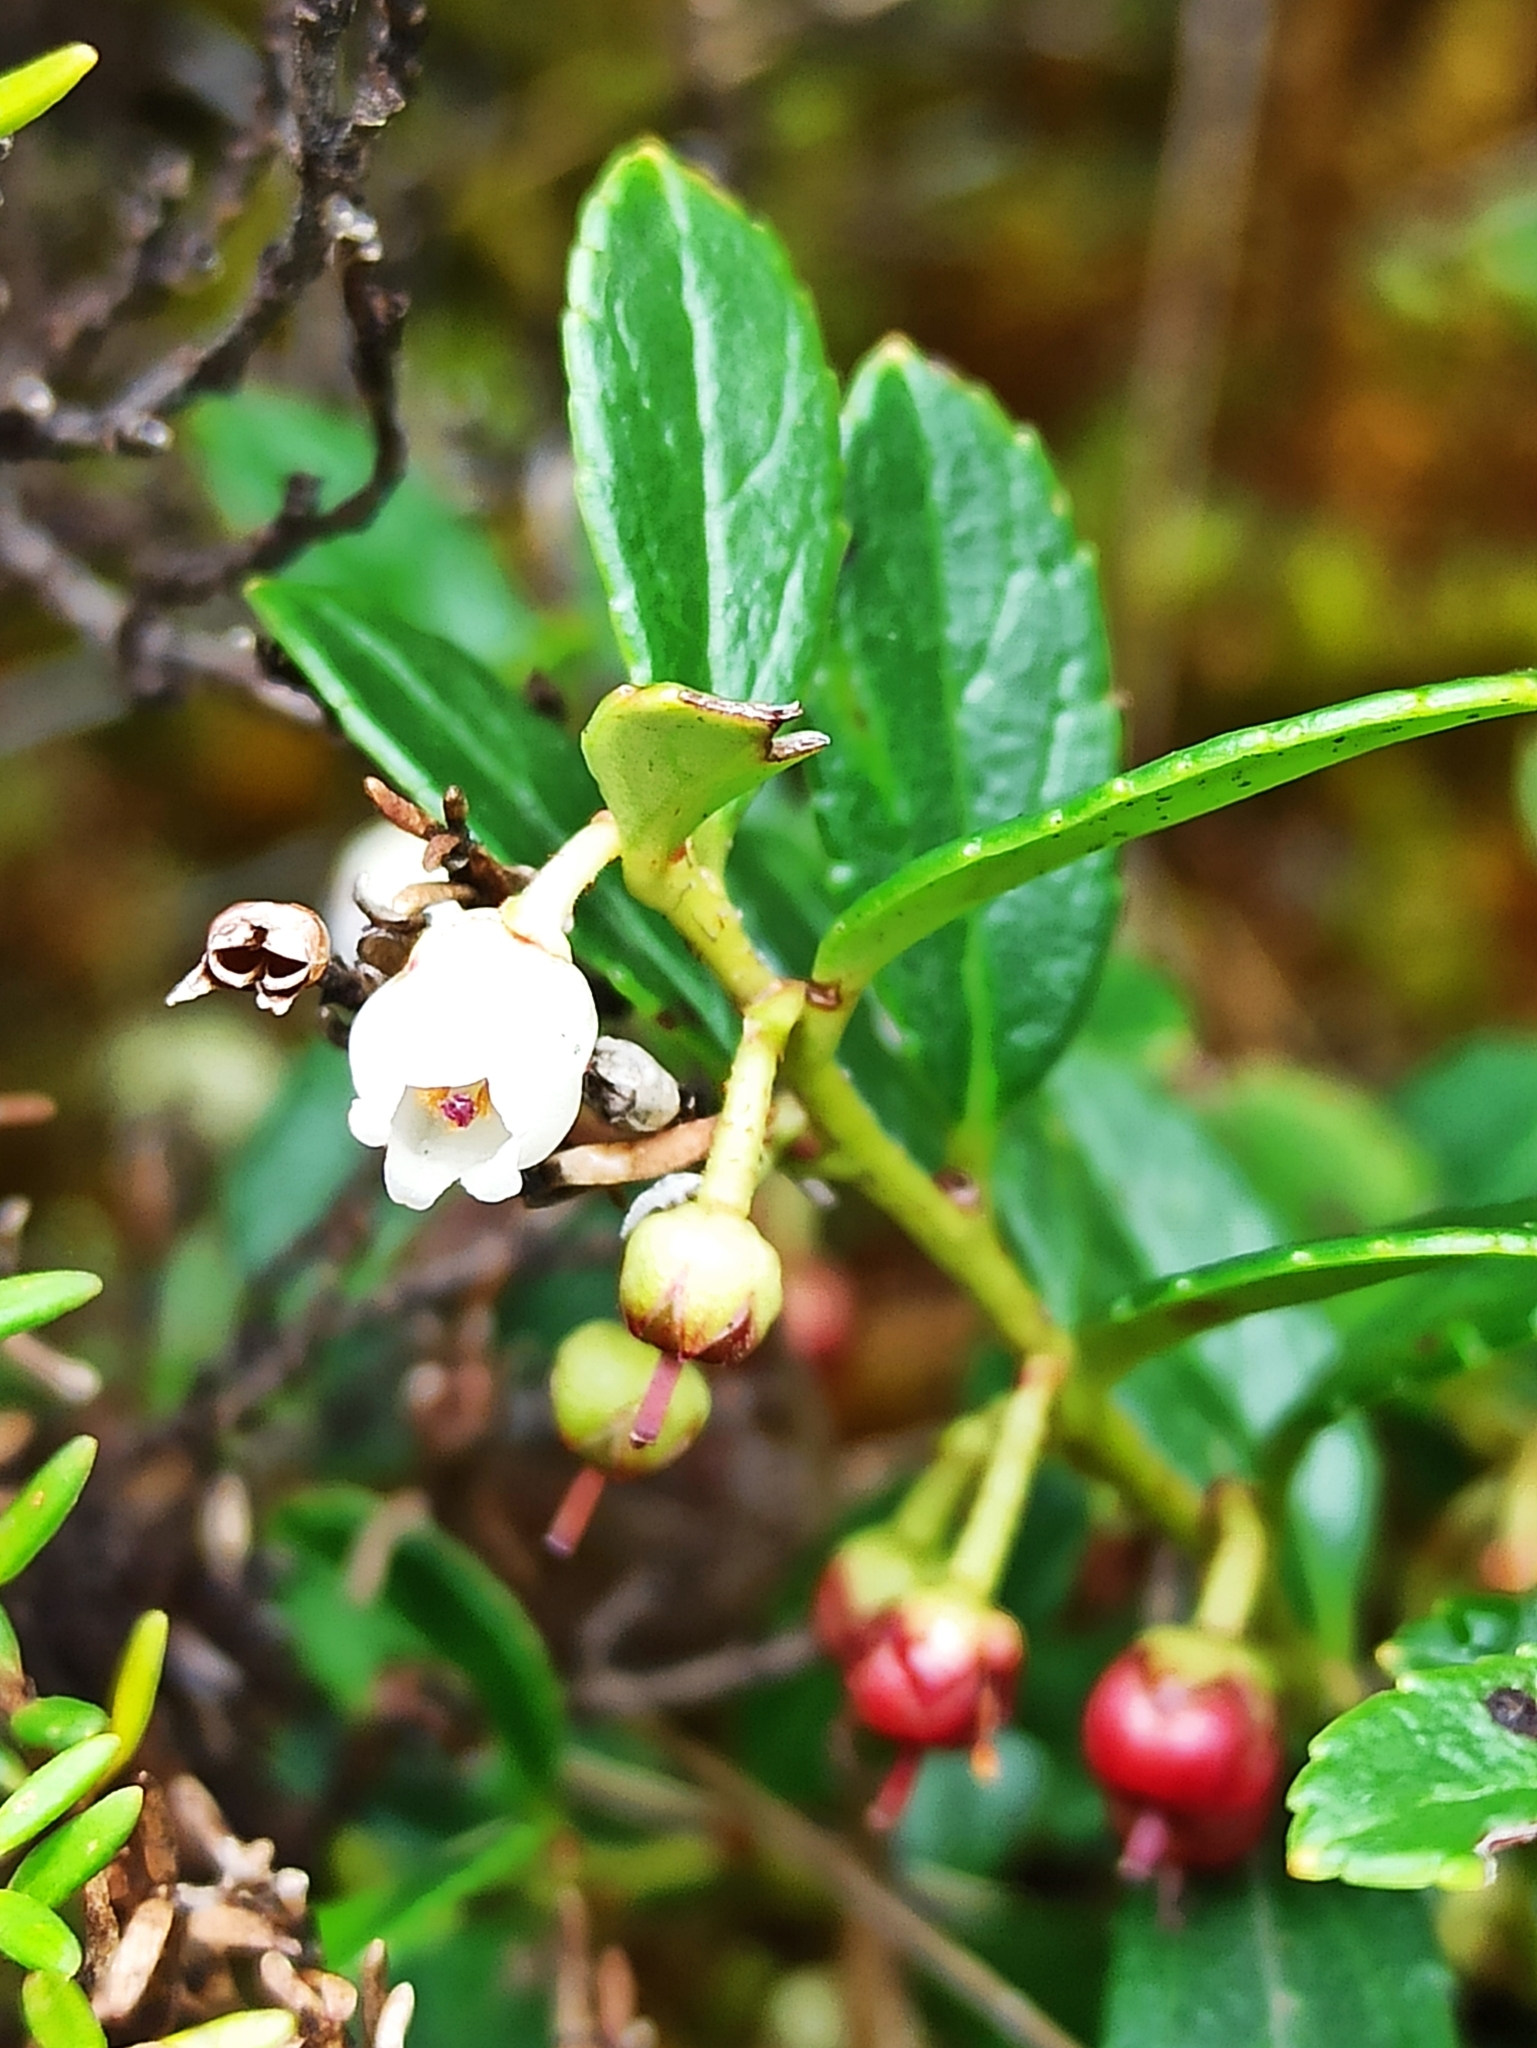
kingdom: Plantae
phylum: Tracheophyta
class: Magnoliopsida
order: Ericales
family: Ericaceae
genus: Gaultheria
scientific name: Gaultheria myrsinoides
